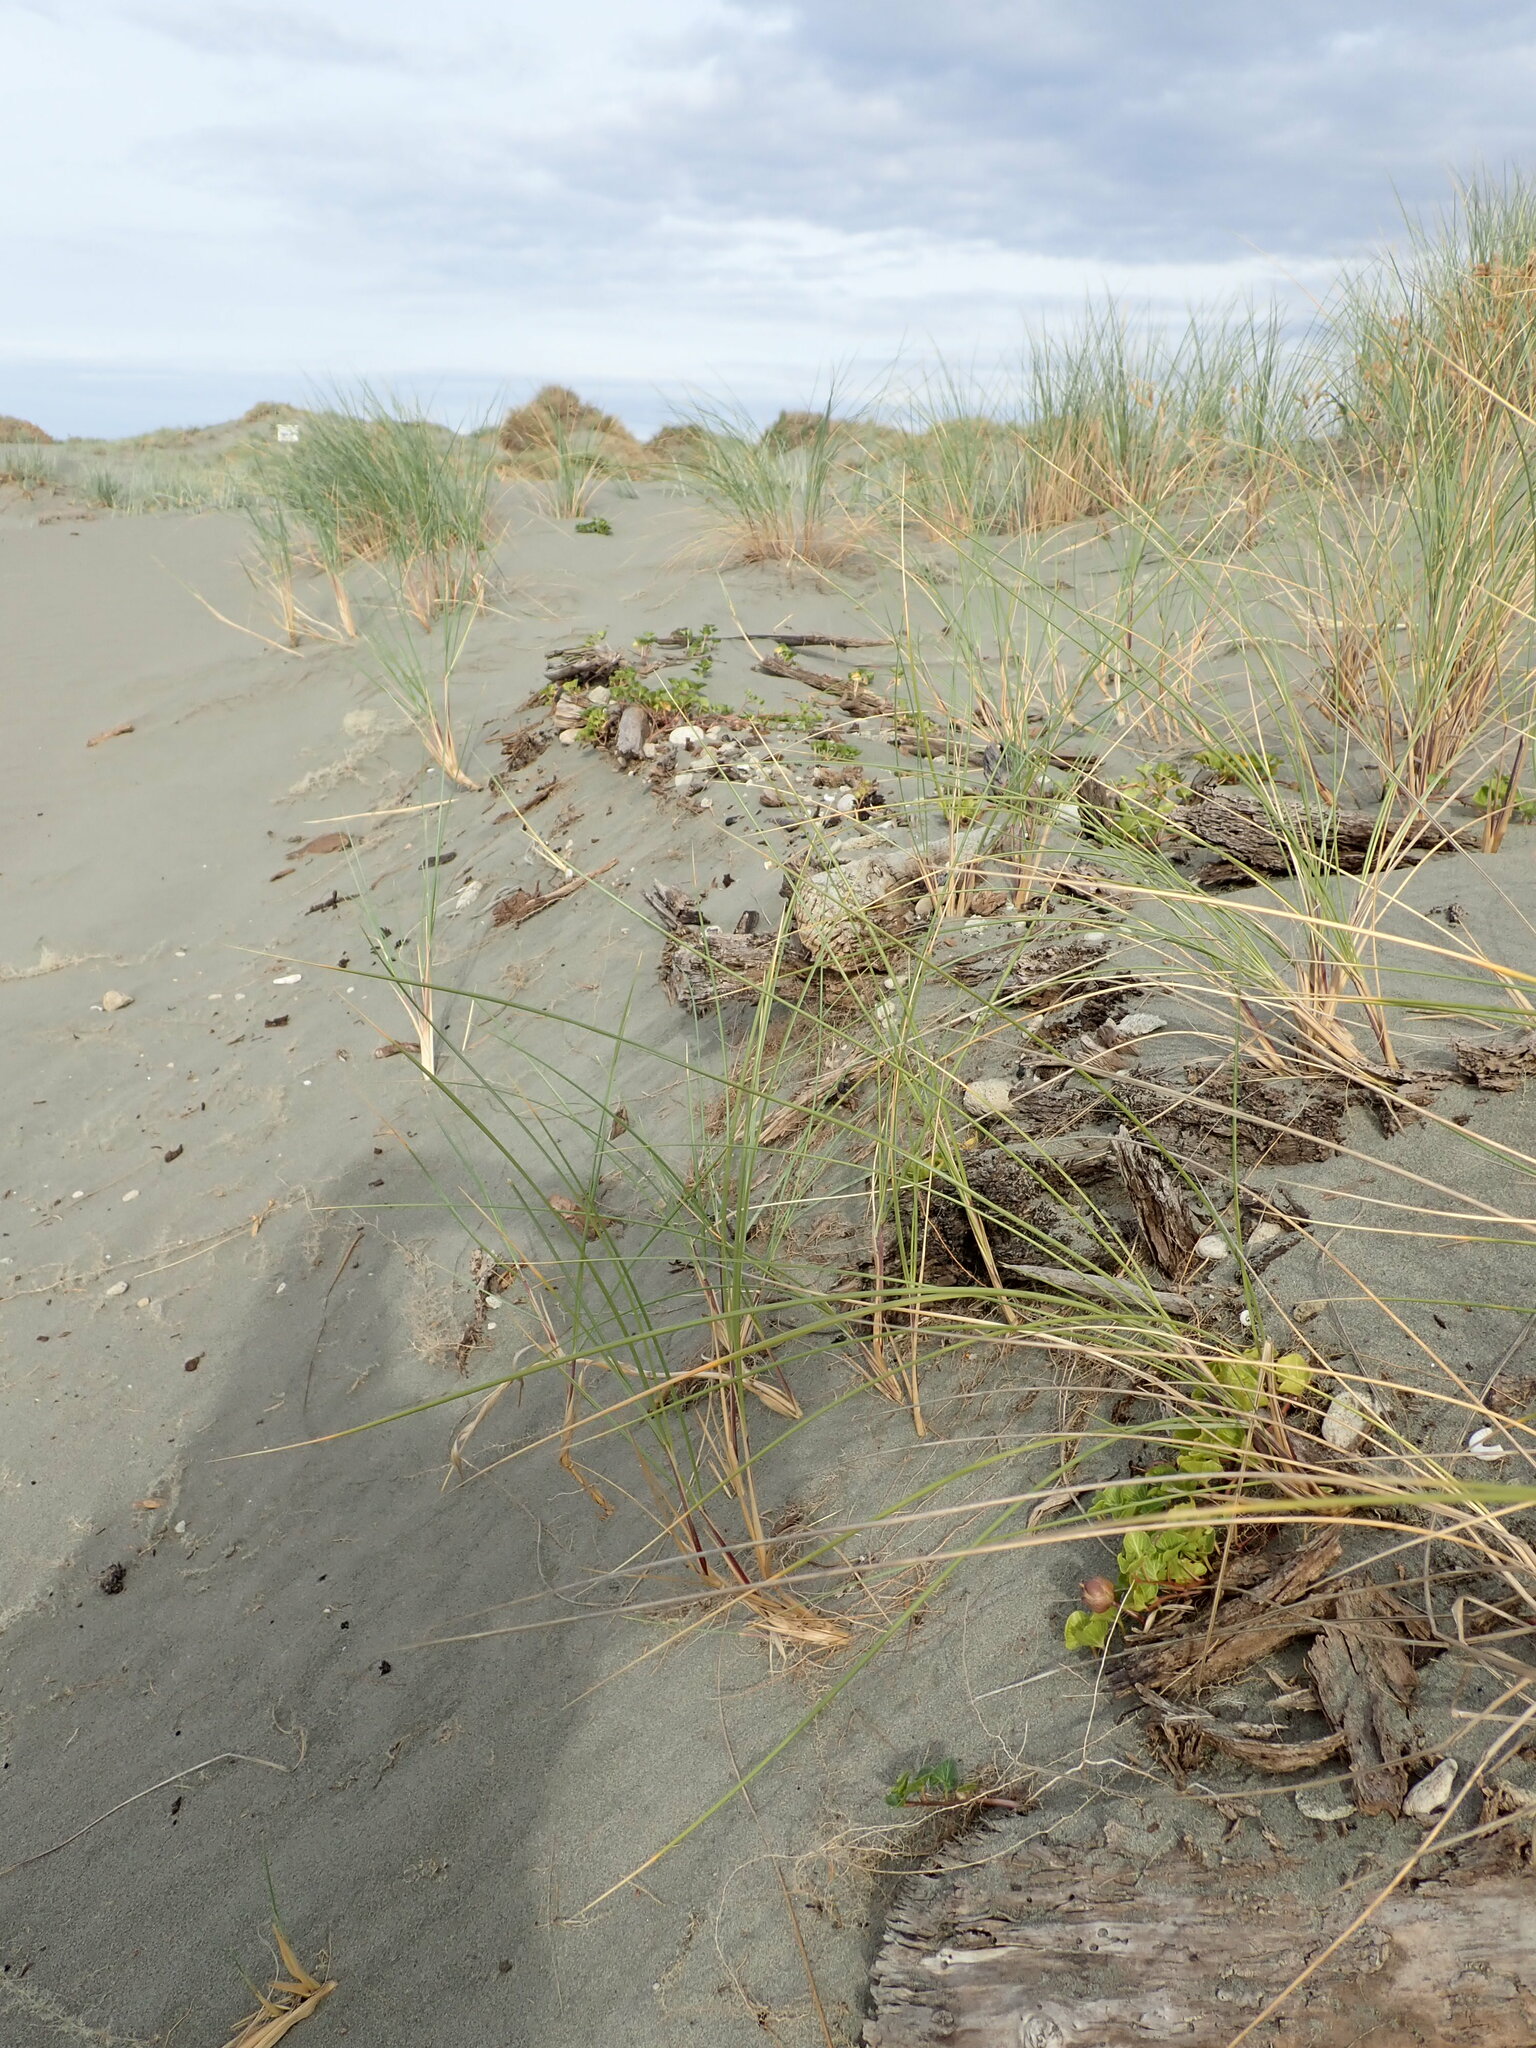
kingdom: Plantae
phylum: Tracheophyta
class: Magnoliopsida
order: Solanales
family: Convolvulaceae
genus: Calystegia
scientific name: Calystegia soldanella
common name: Sea bindweed
